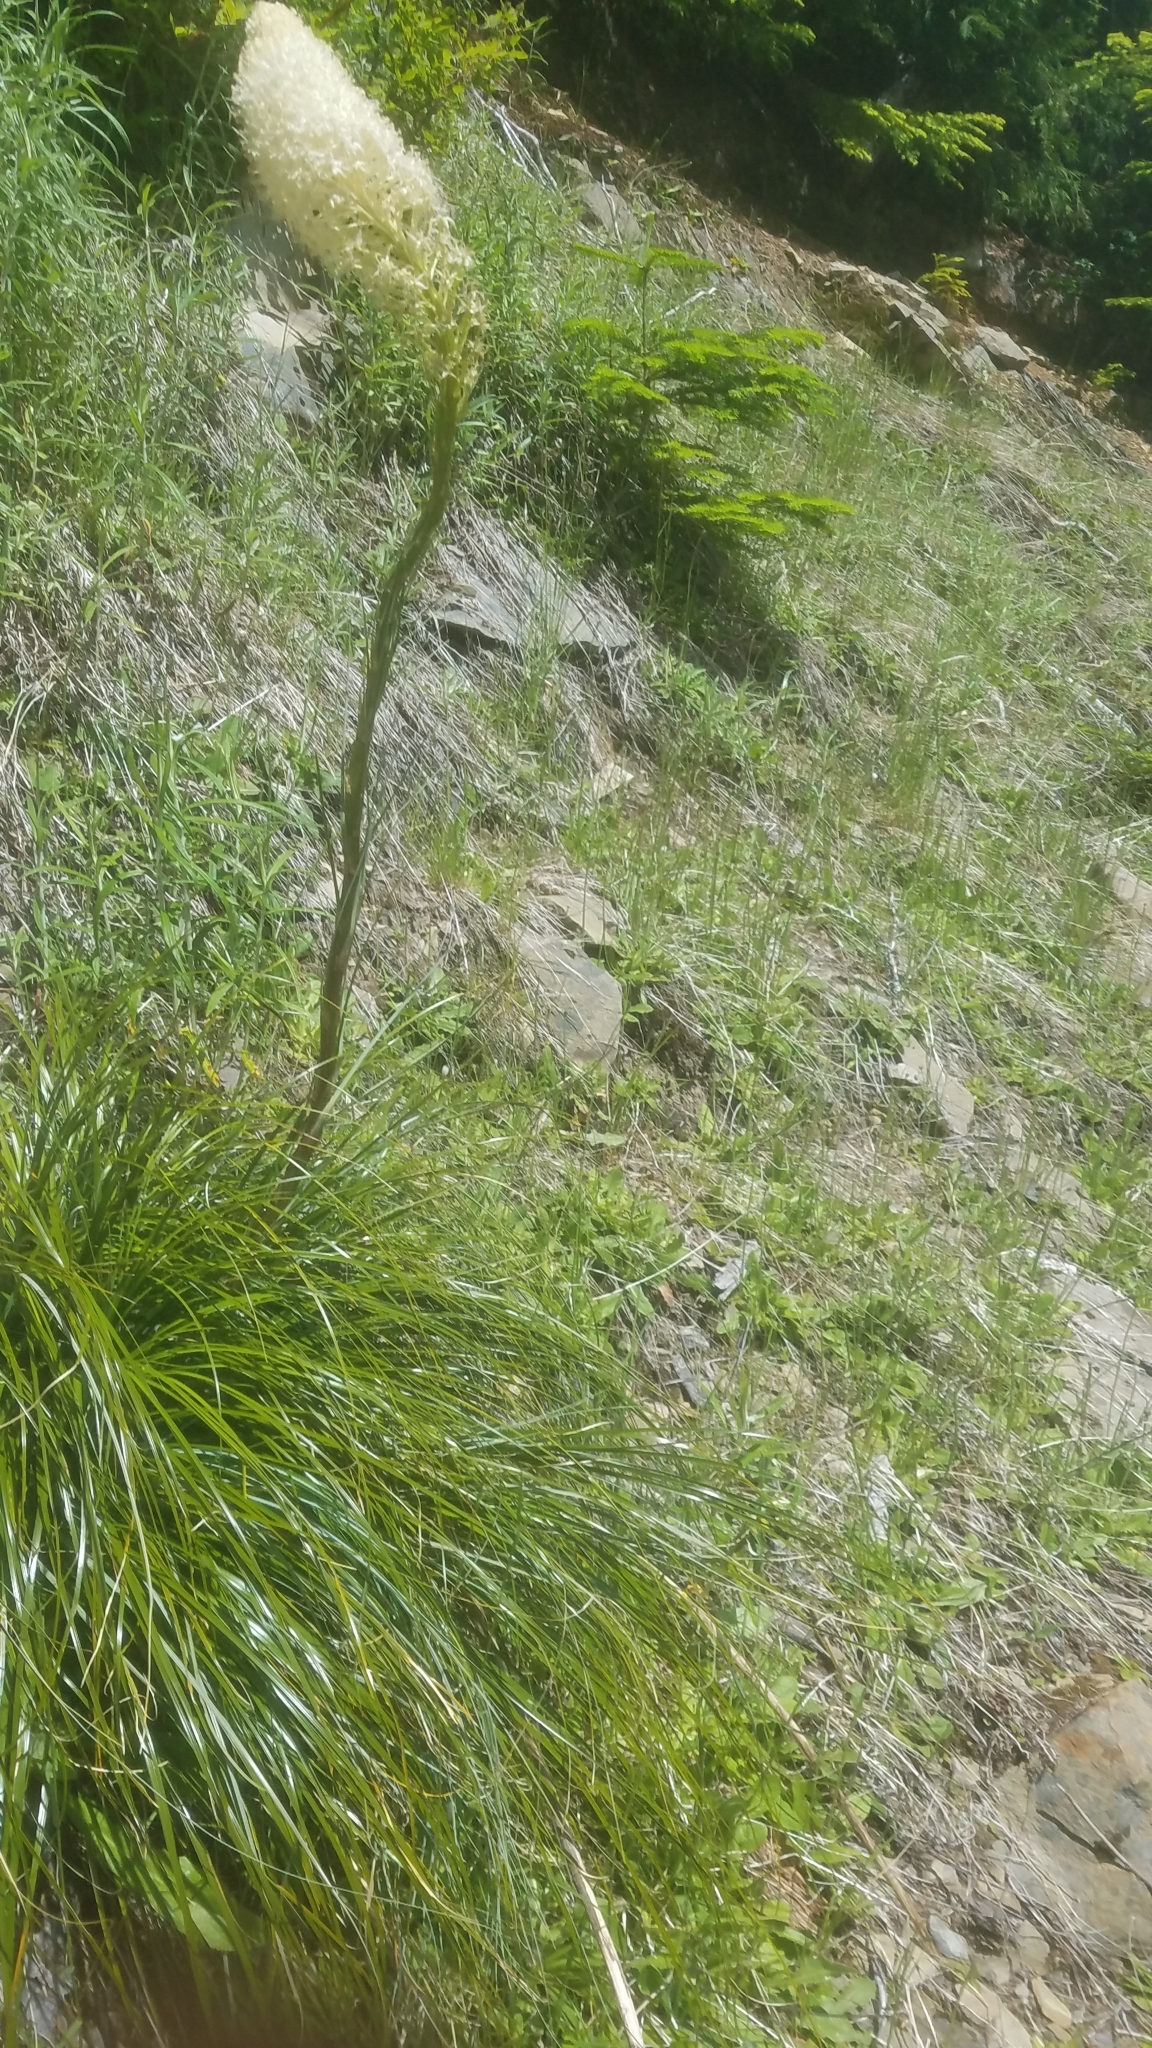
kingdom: Plantae
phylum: Tracheophyta
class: Liliopsida
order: Liliales
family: Melanthiaceae
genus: Xerophyllum
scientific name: Xerophyllum tenax
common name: Bear-grass
